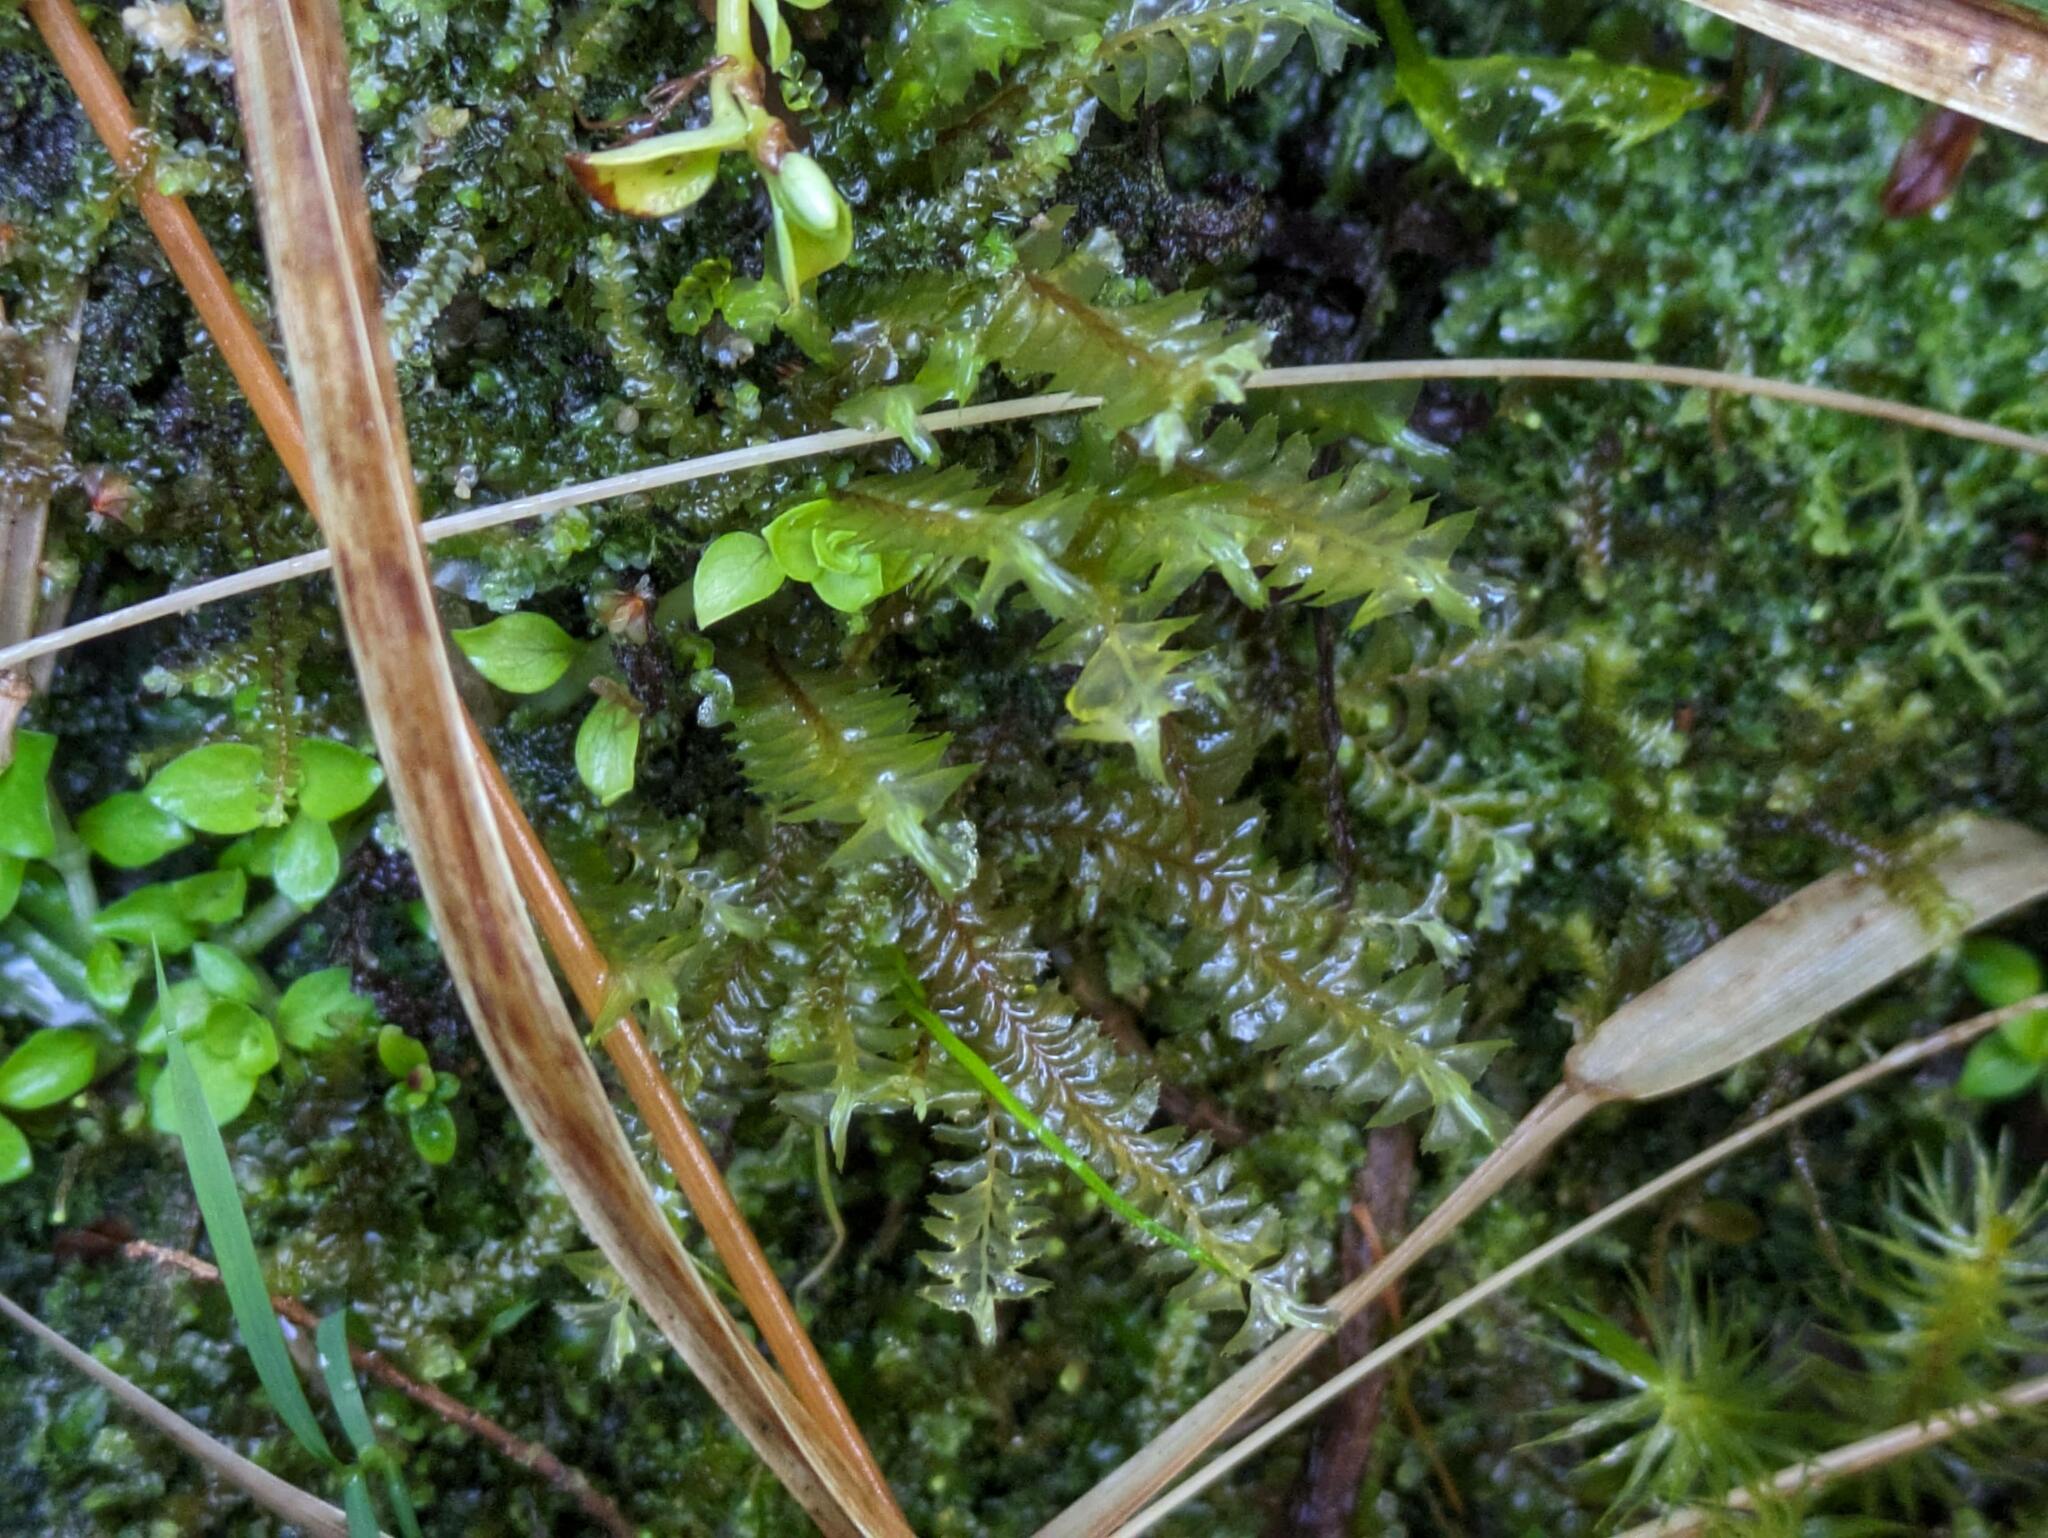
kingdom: Plantae
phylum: Marchantiophyta
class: Jungermanniopsida
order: Jungermanniales
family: Plagiochilaceae
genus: Plagiochila
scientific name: Plagiochila deflexa
